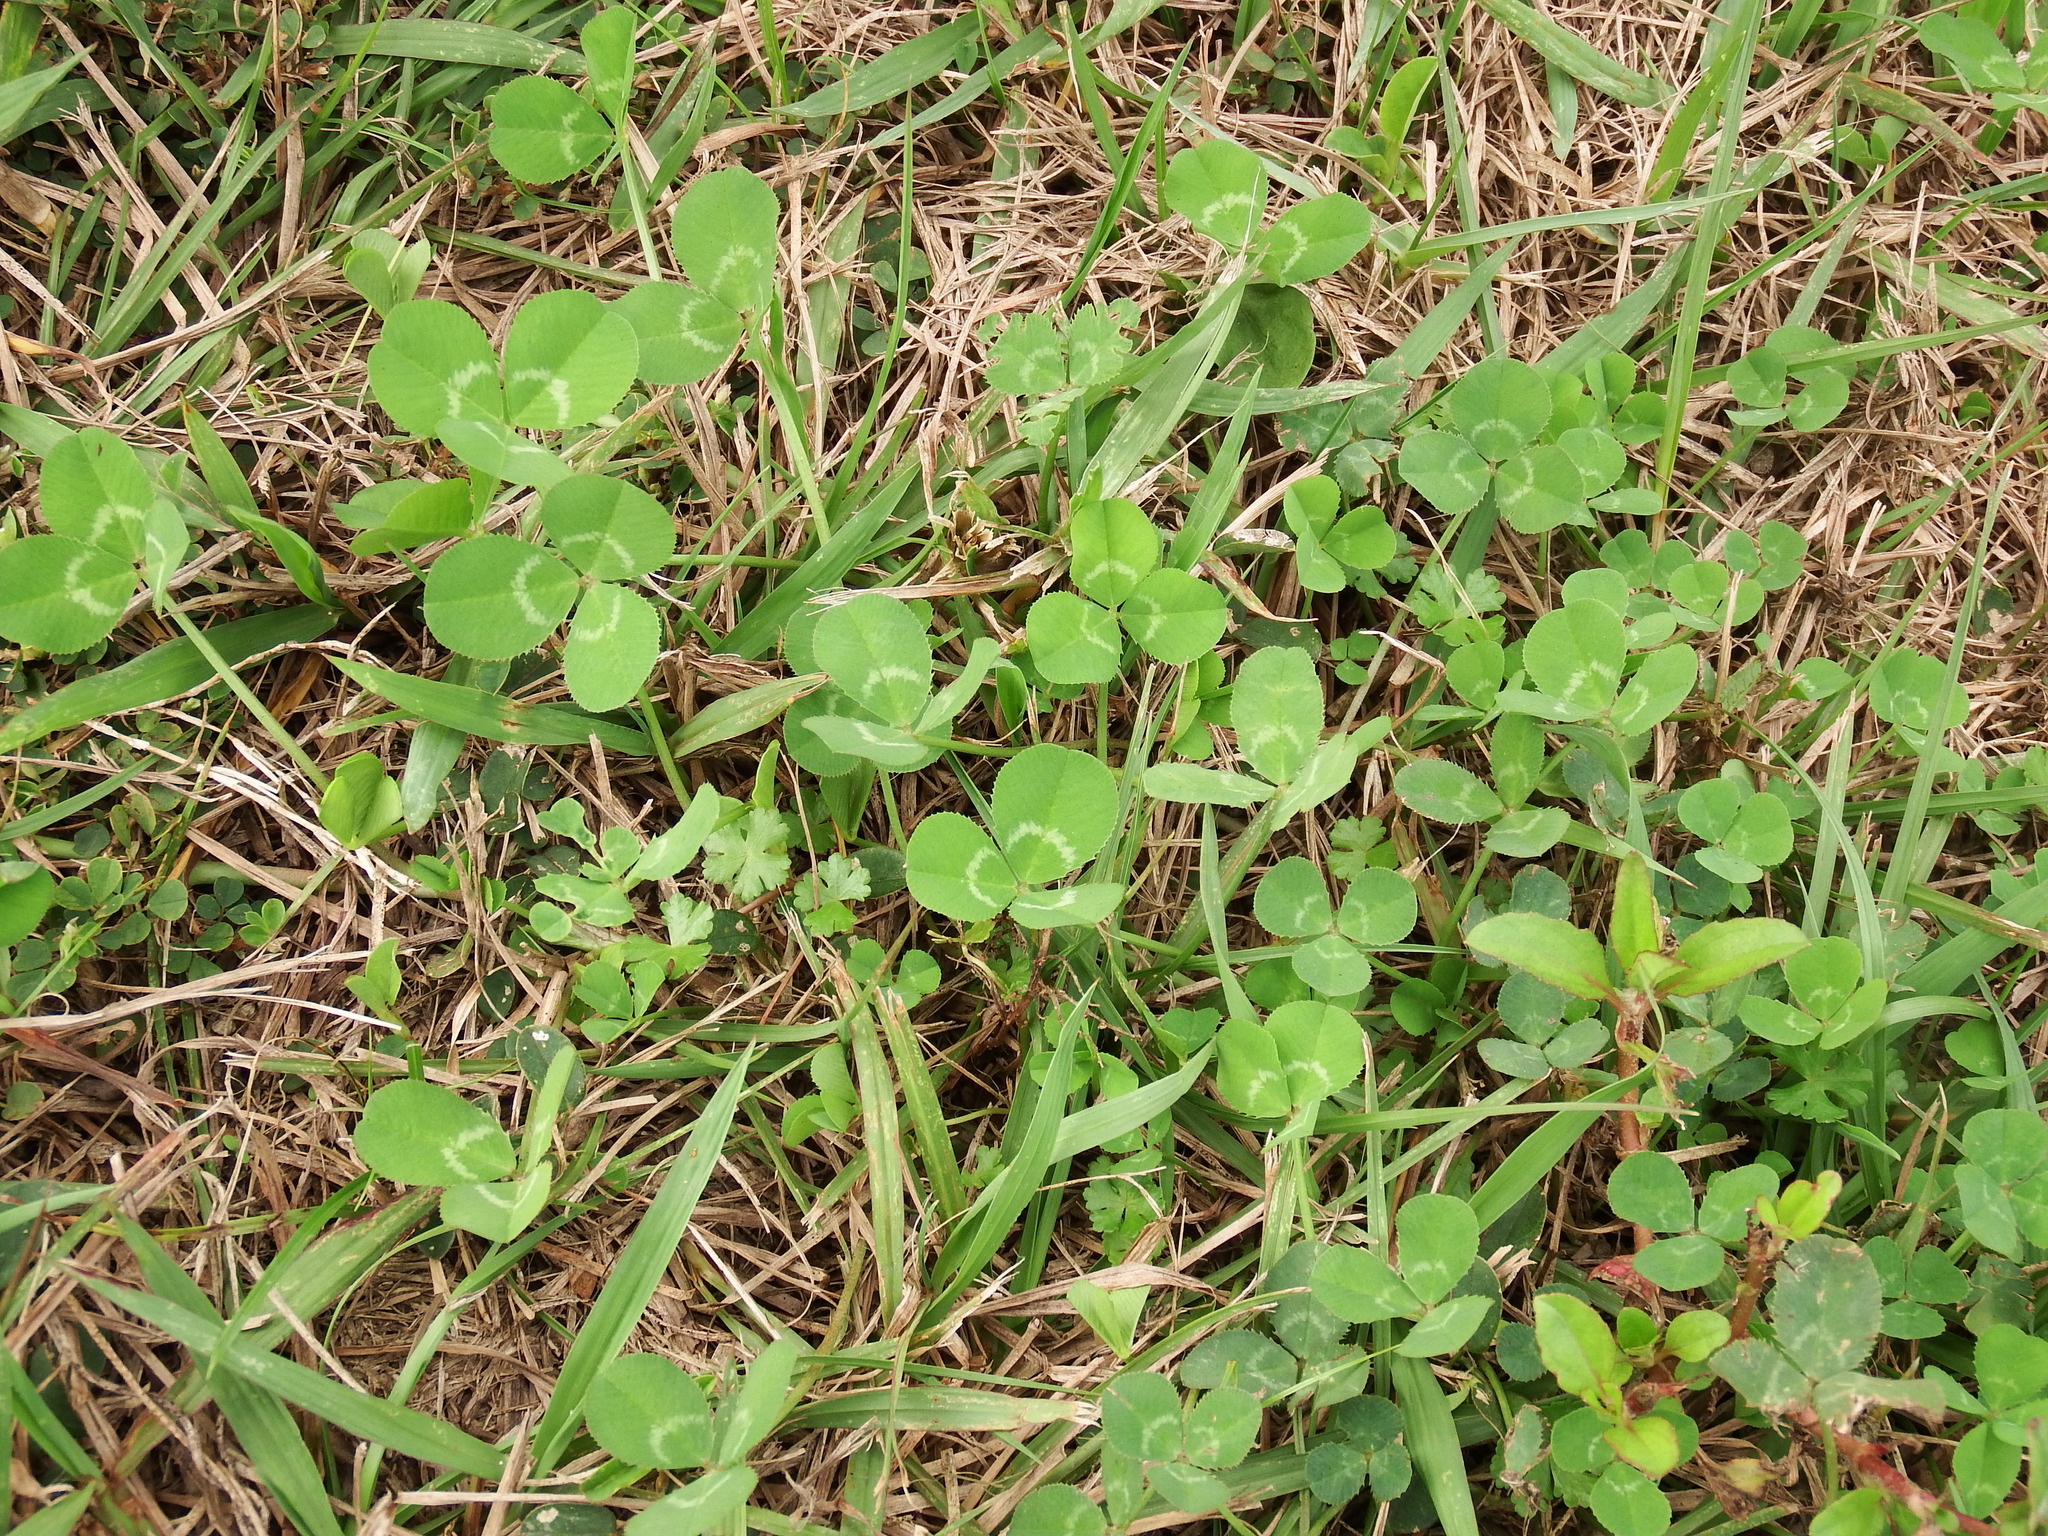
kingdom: Plantae
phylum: Tracheophyta
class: Magnoliopsida
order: Fabales
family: Fabaceae
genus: Trifolium
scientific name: Trifolium repens
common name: White clover
